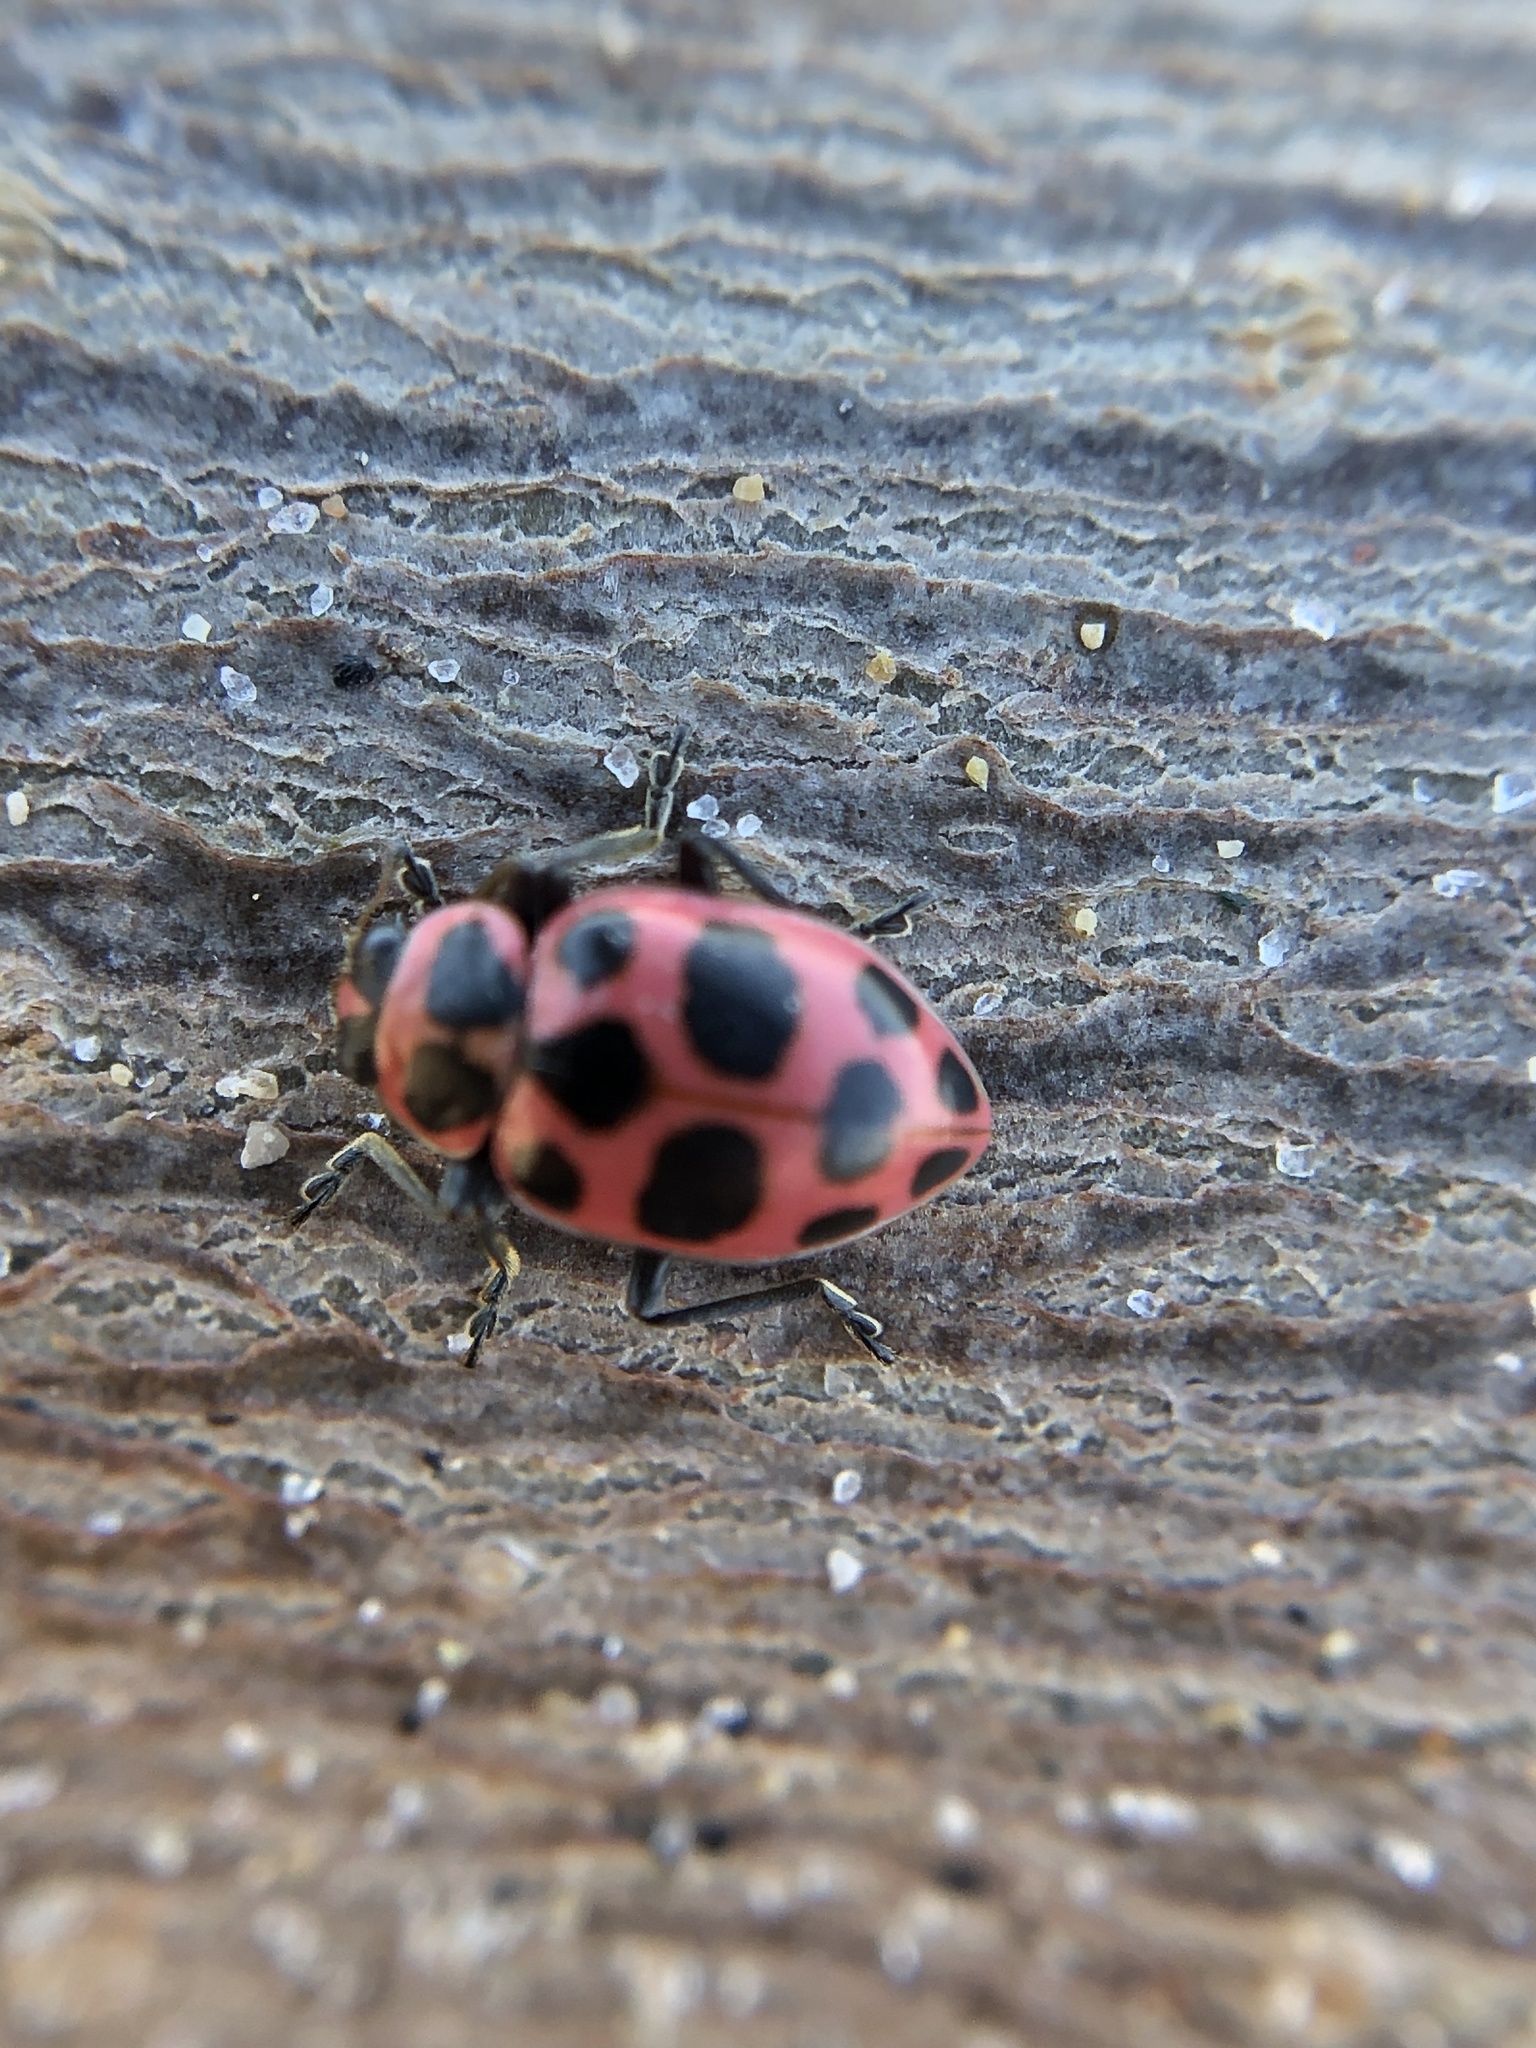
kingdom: Animalia
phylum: Arthropoda
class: Insecta
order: Coleoptera
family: Coccinellidae
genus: Coleomegilla
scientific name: Coleomegilla maculata
